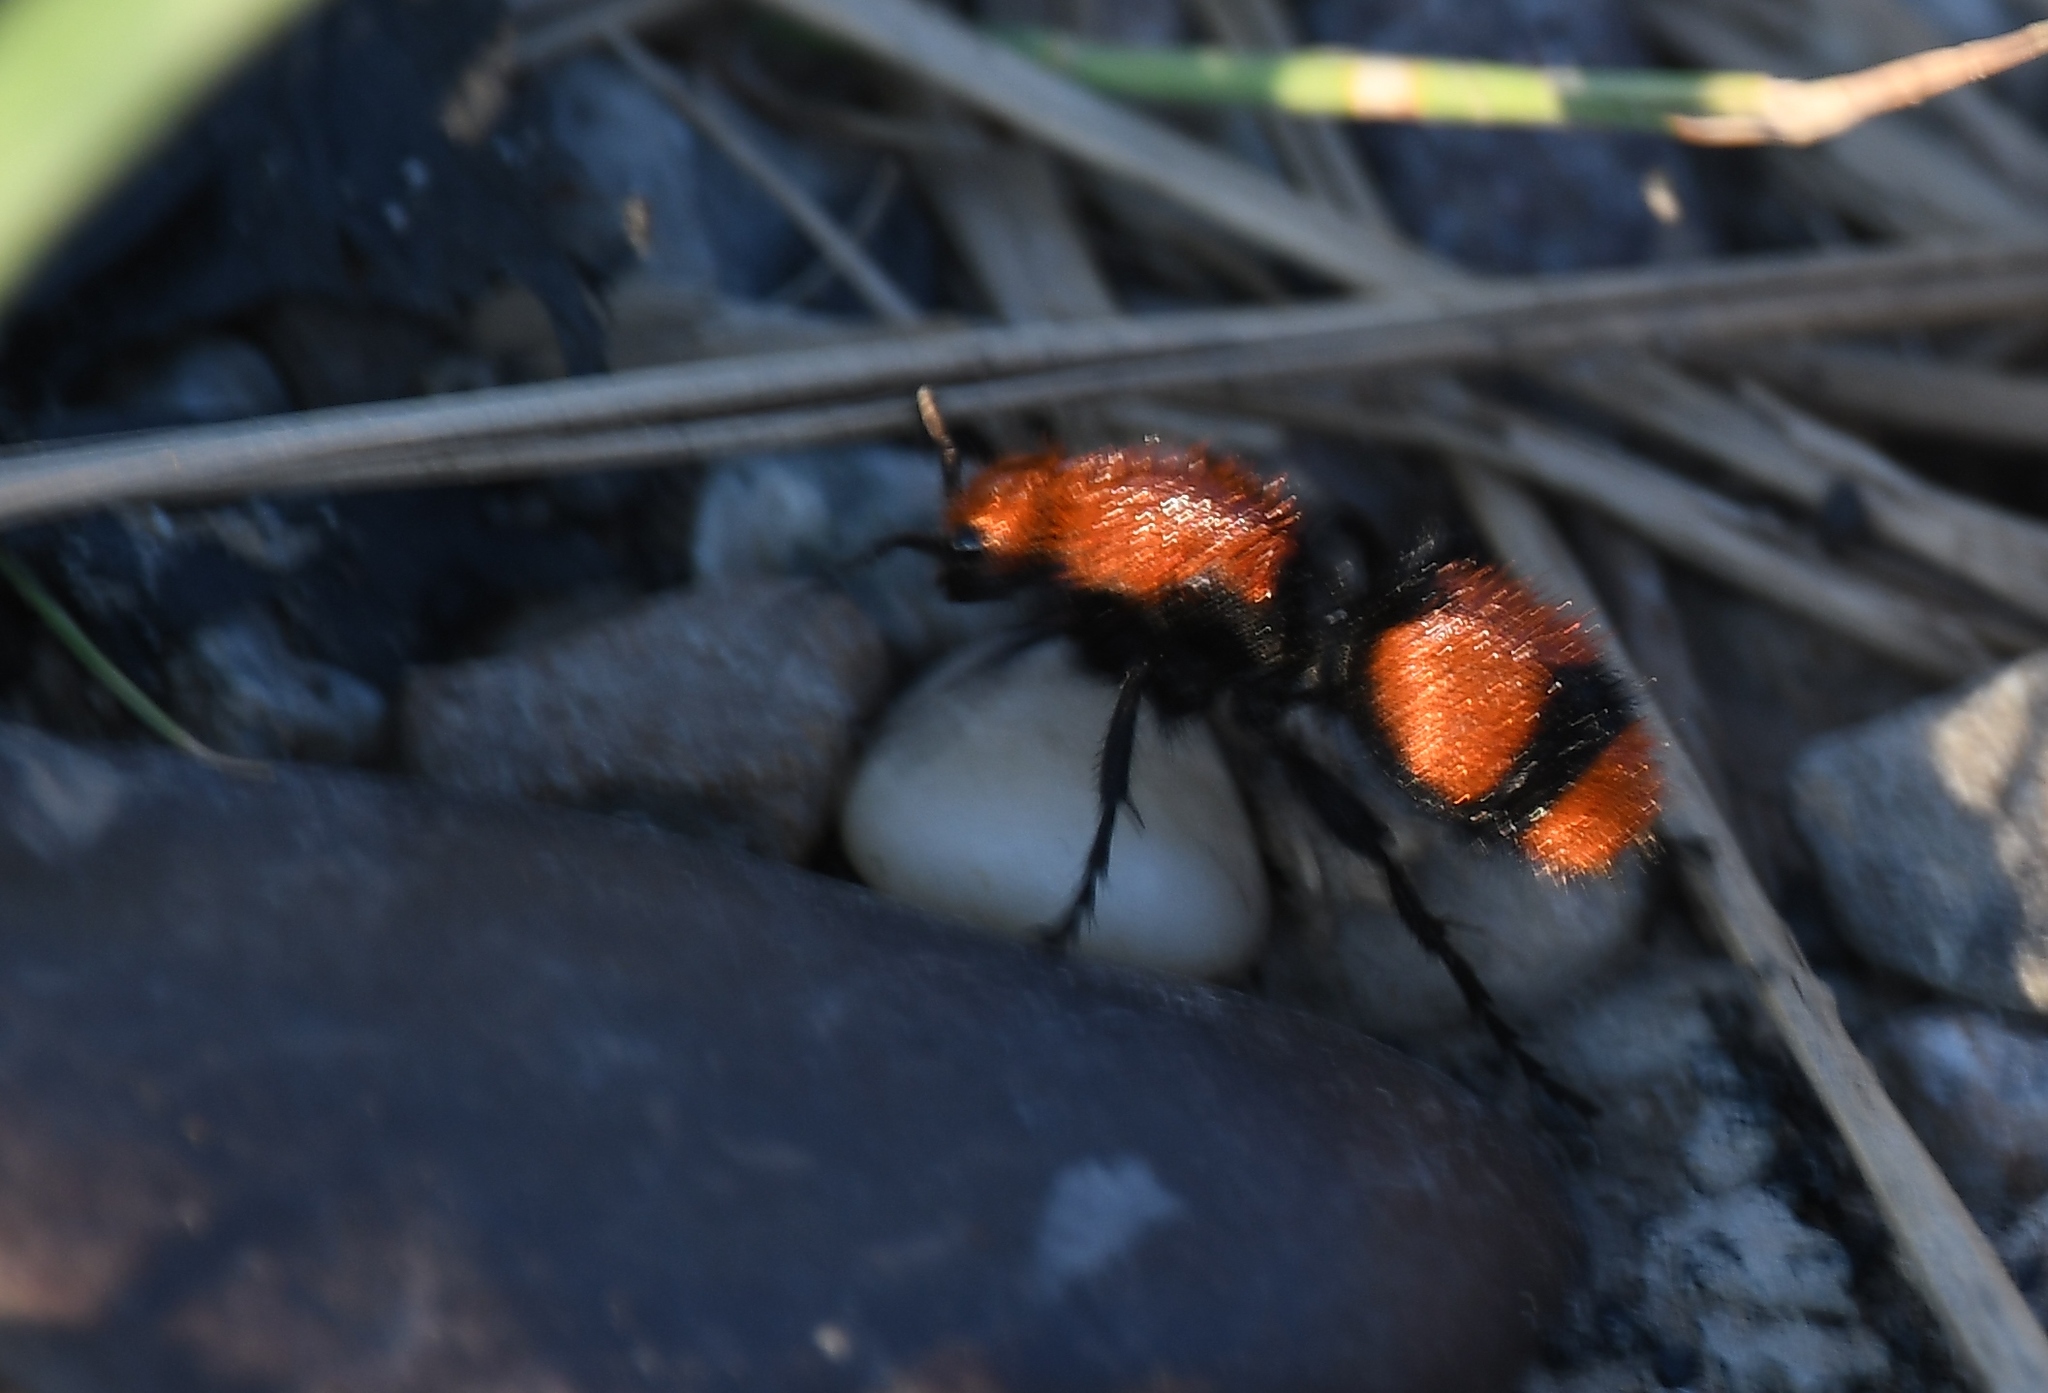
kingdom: Animalia
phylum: Arthropoda
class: Insecta
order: Hymenoptera
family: Mutillidae
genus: Dasymutilla
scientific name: Dasymutilla occidentalis
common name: Common eastern velvet ant
